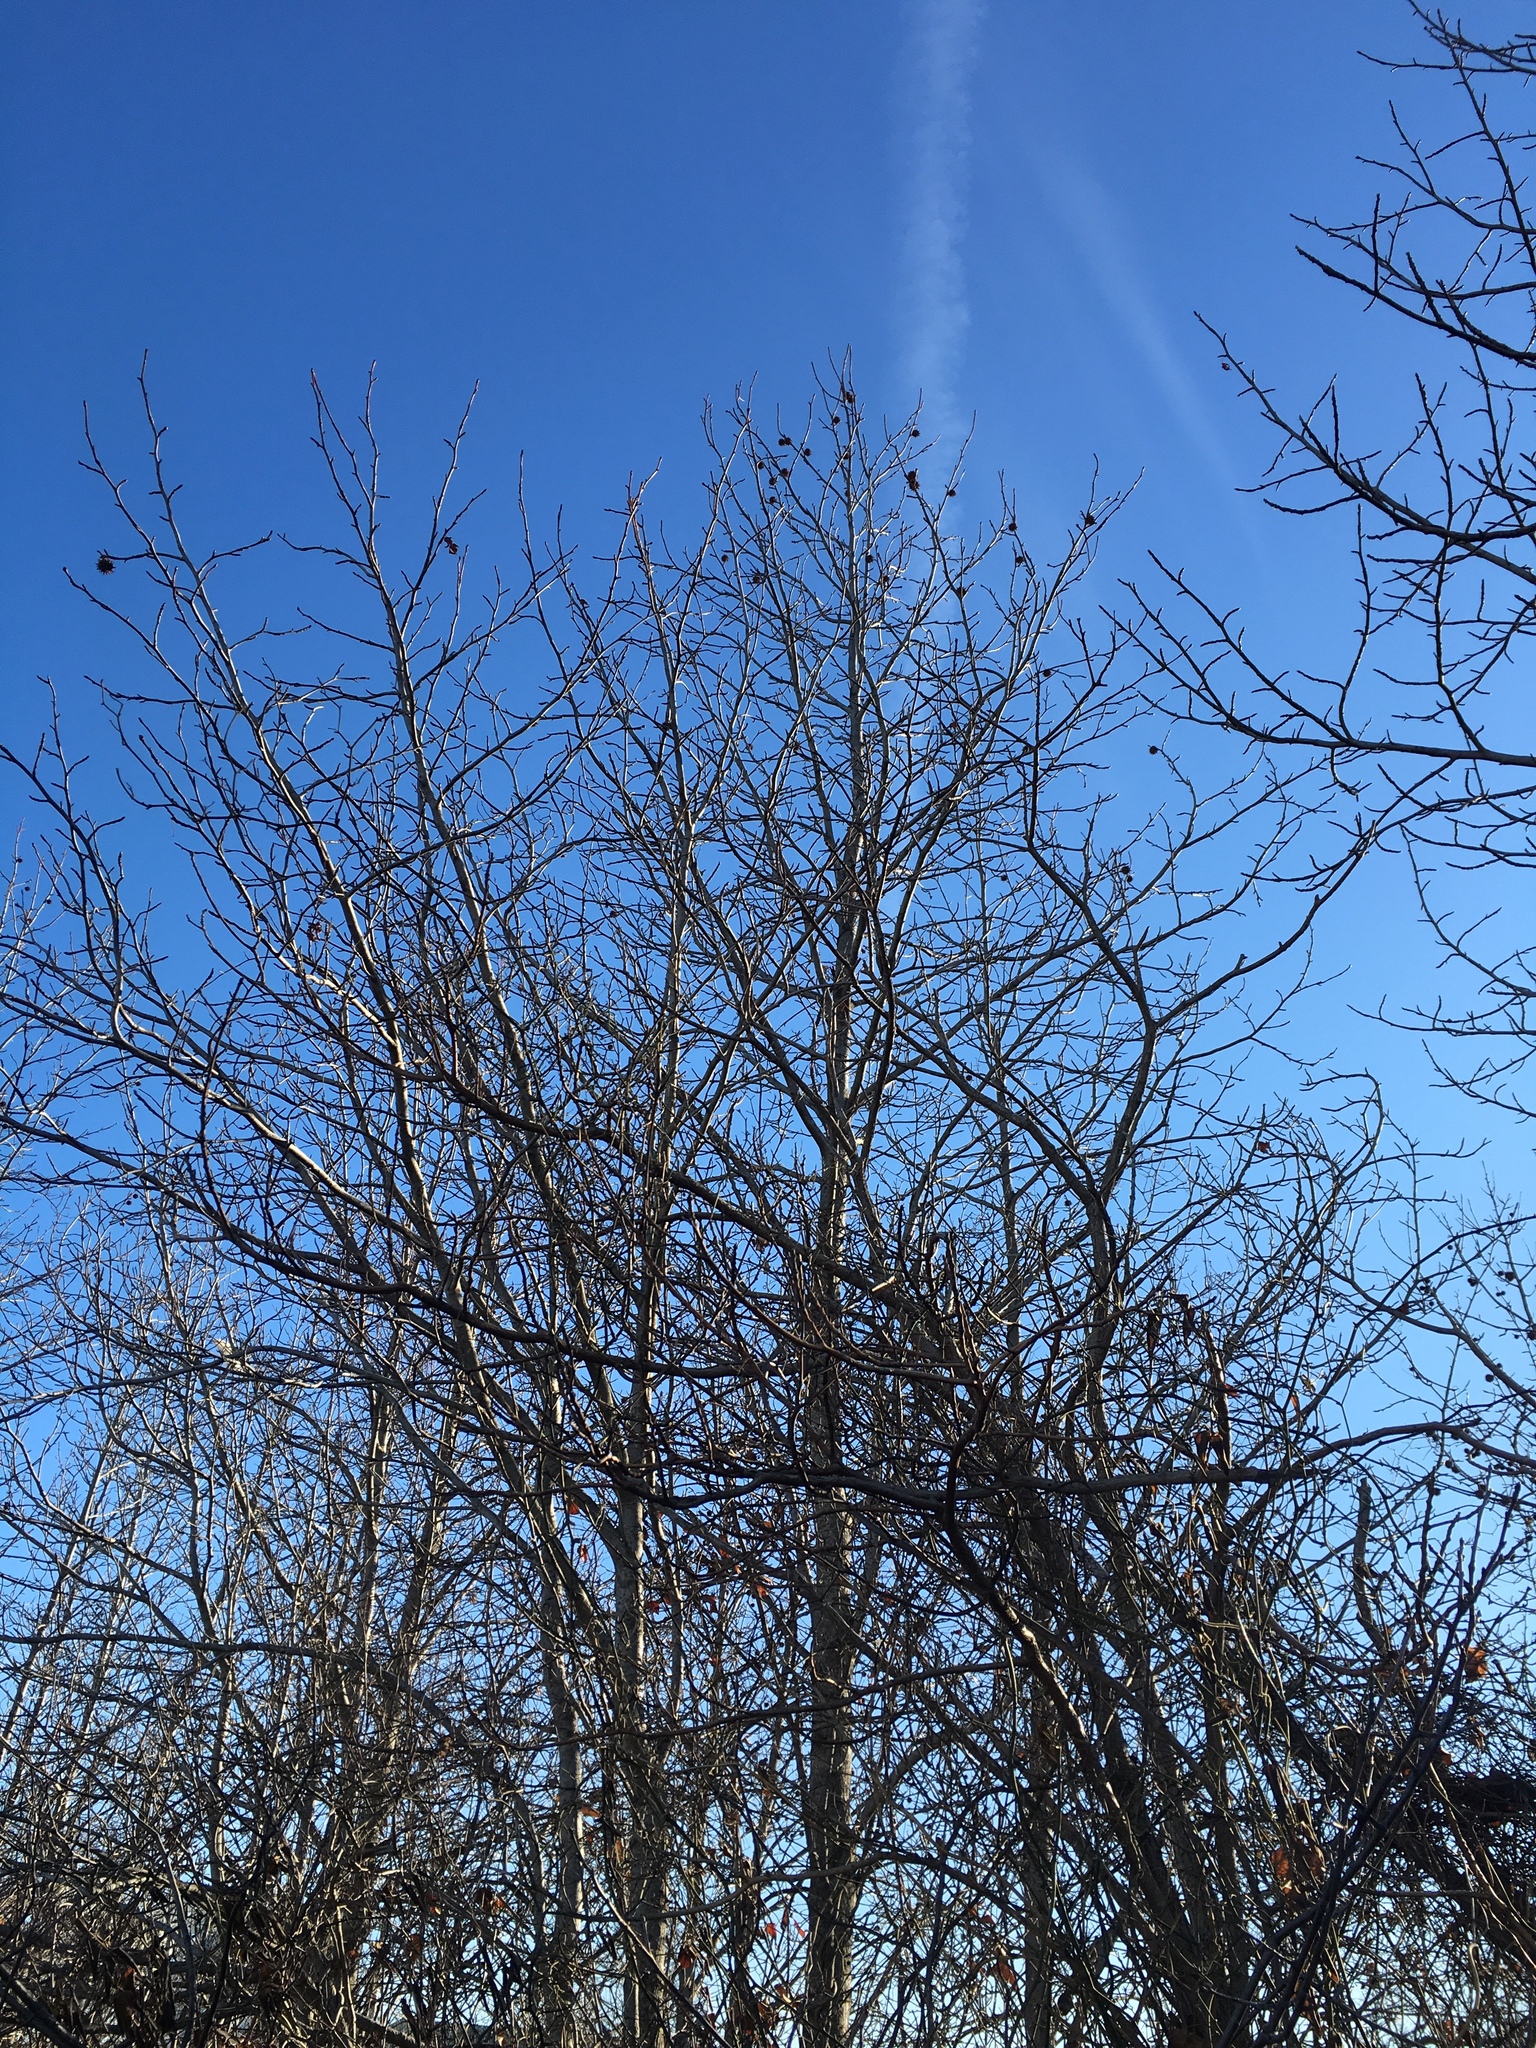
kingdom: Plantae
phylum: Tracheophyta
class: Magnoliopsida
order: Saxifragales
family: Altingiaceae
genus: Liquidambar
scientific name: Liquidambar styraciflua
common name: Sweet gum
